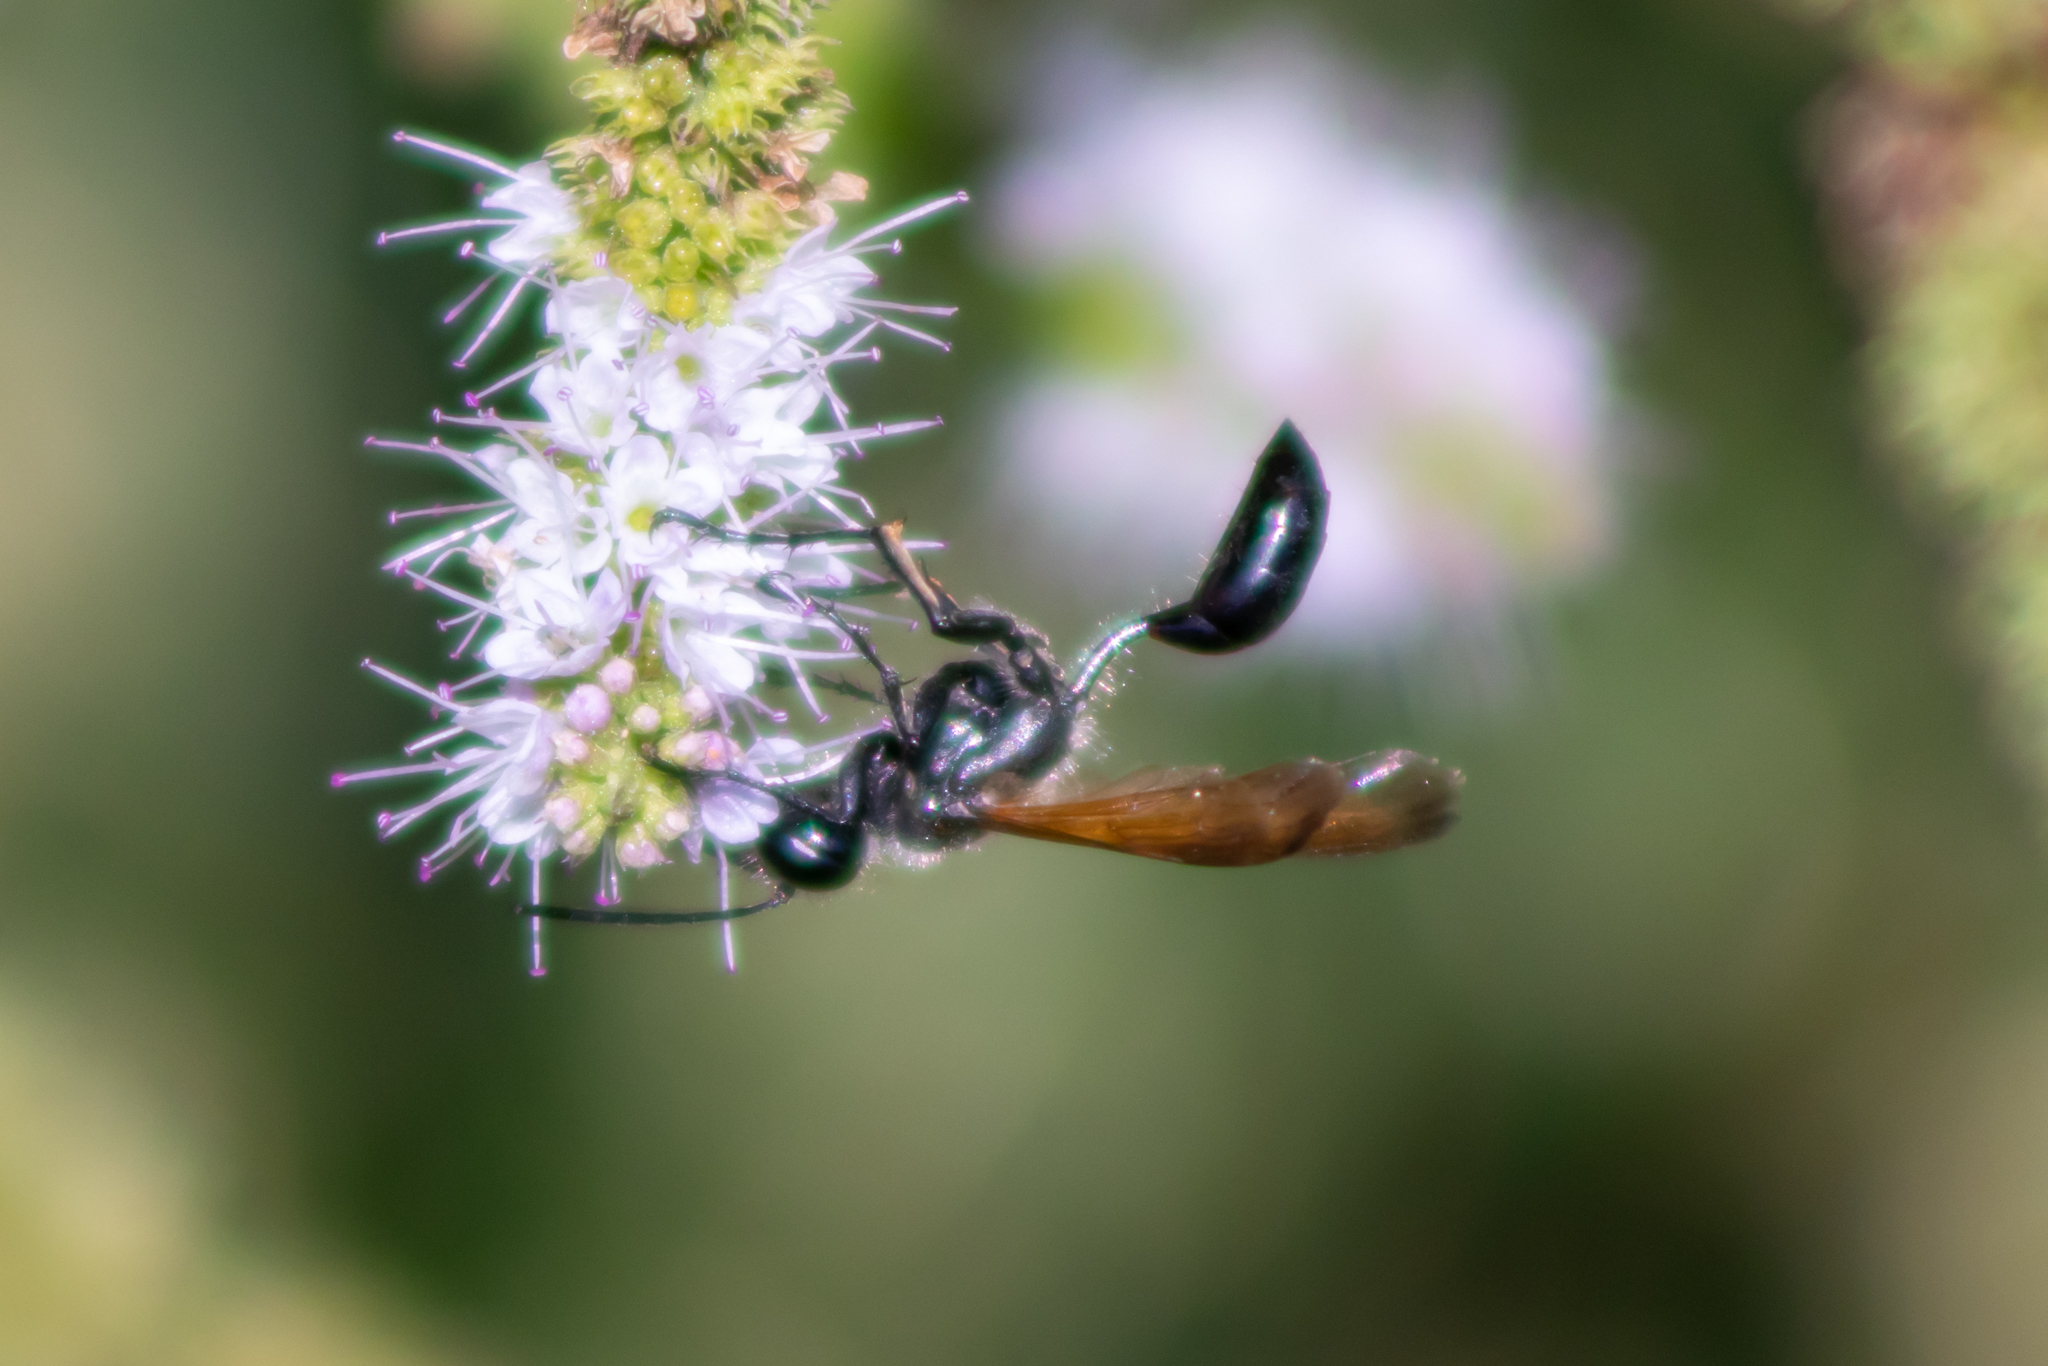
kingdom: Animalia
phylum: Arthropoda
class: Insecta
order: Hymenoptera
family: Sphecidae
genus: Isodontia
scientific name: Isodontia mexicana
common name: Mud dauber
